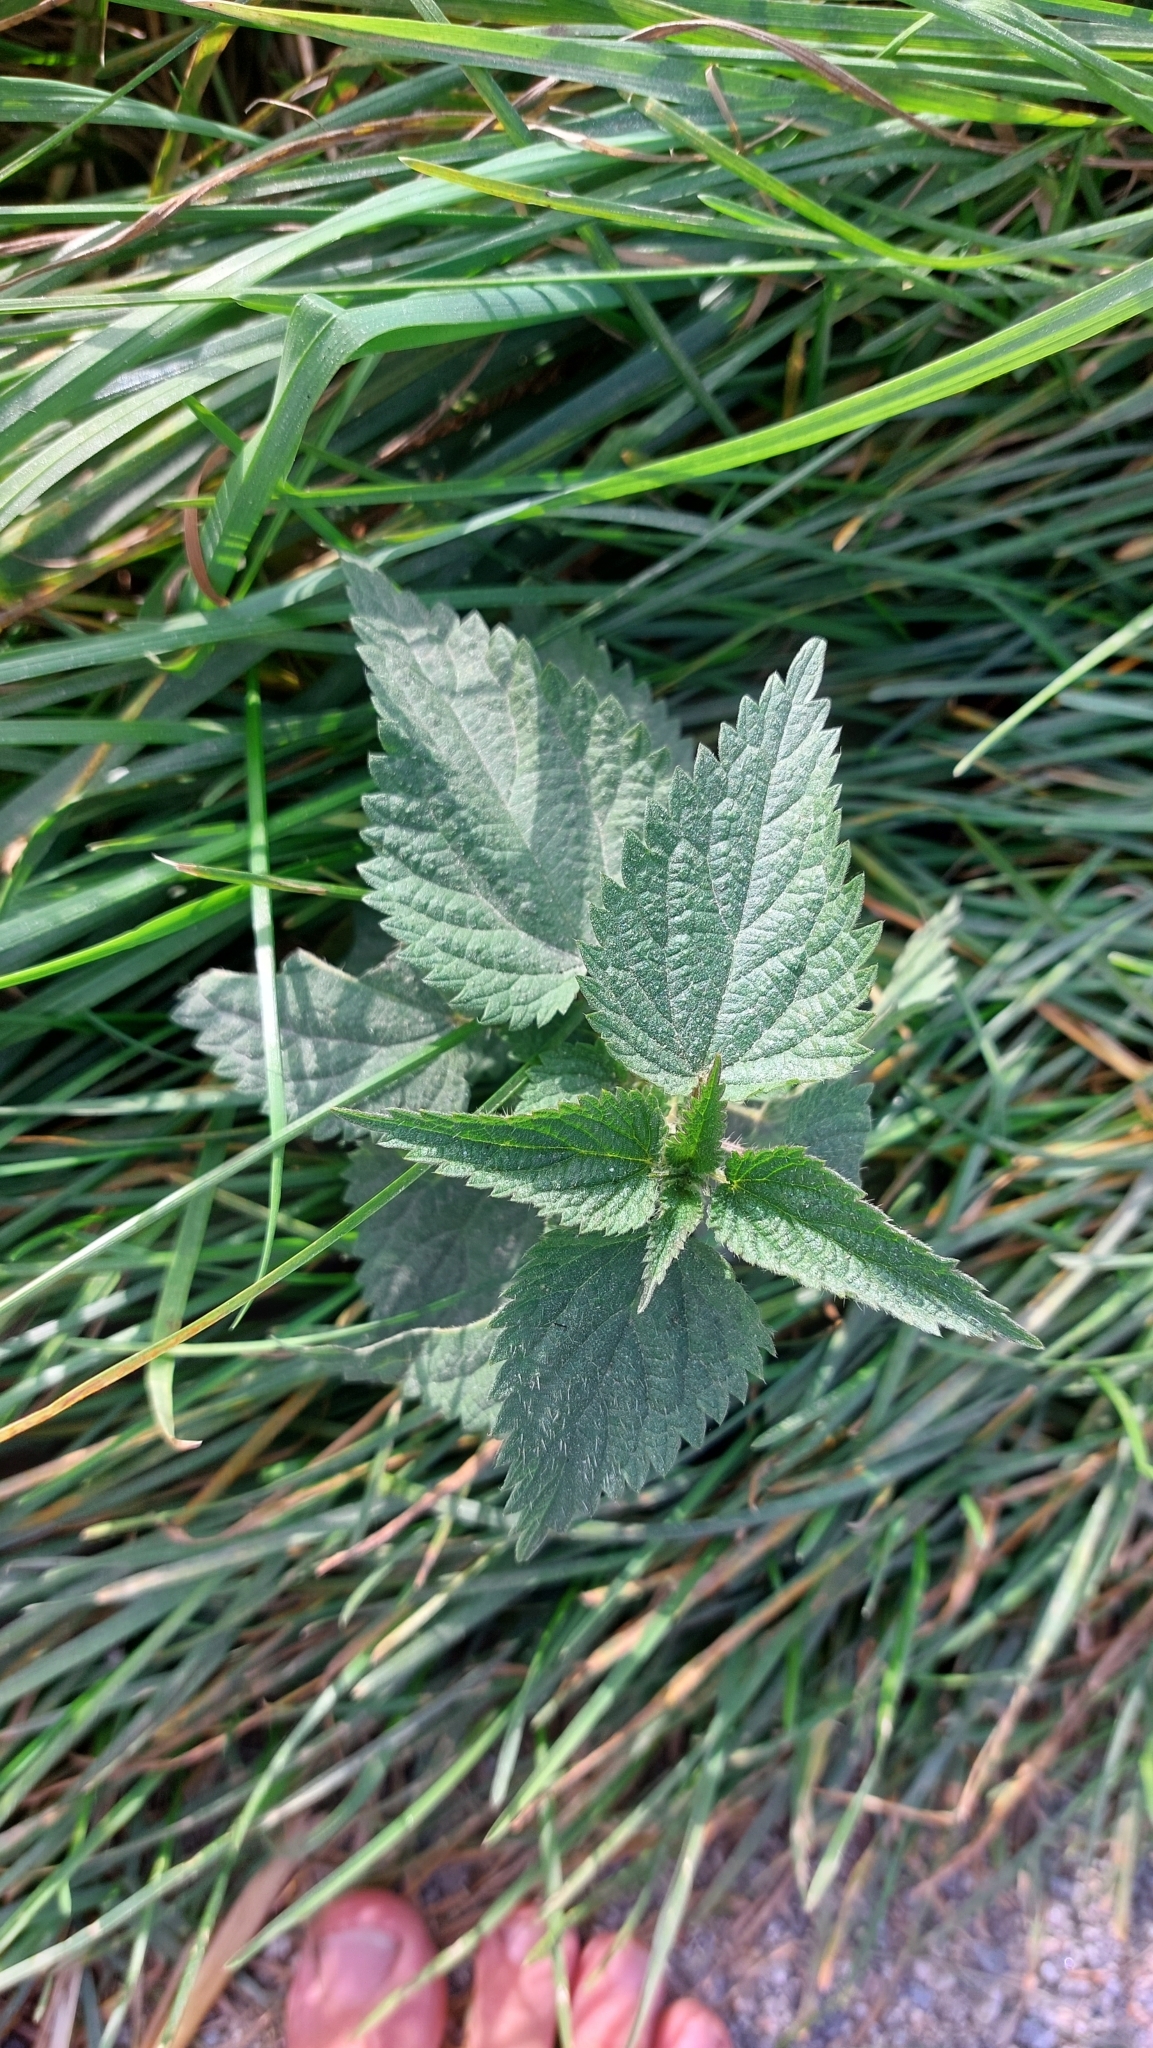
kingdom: Plantae
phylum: Tracheophyta
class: Magnoliopsida
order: Rosales
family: Urticaceae
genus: Urtica
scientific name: Urtica dioica
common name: Common nettle
